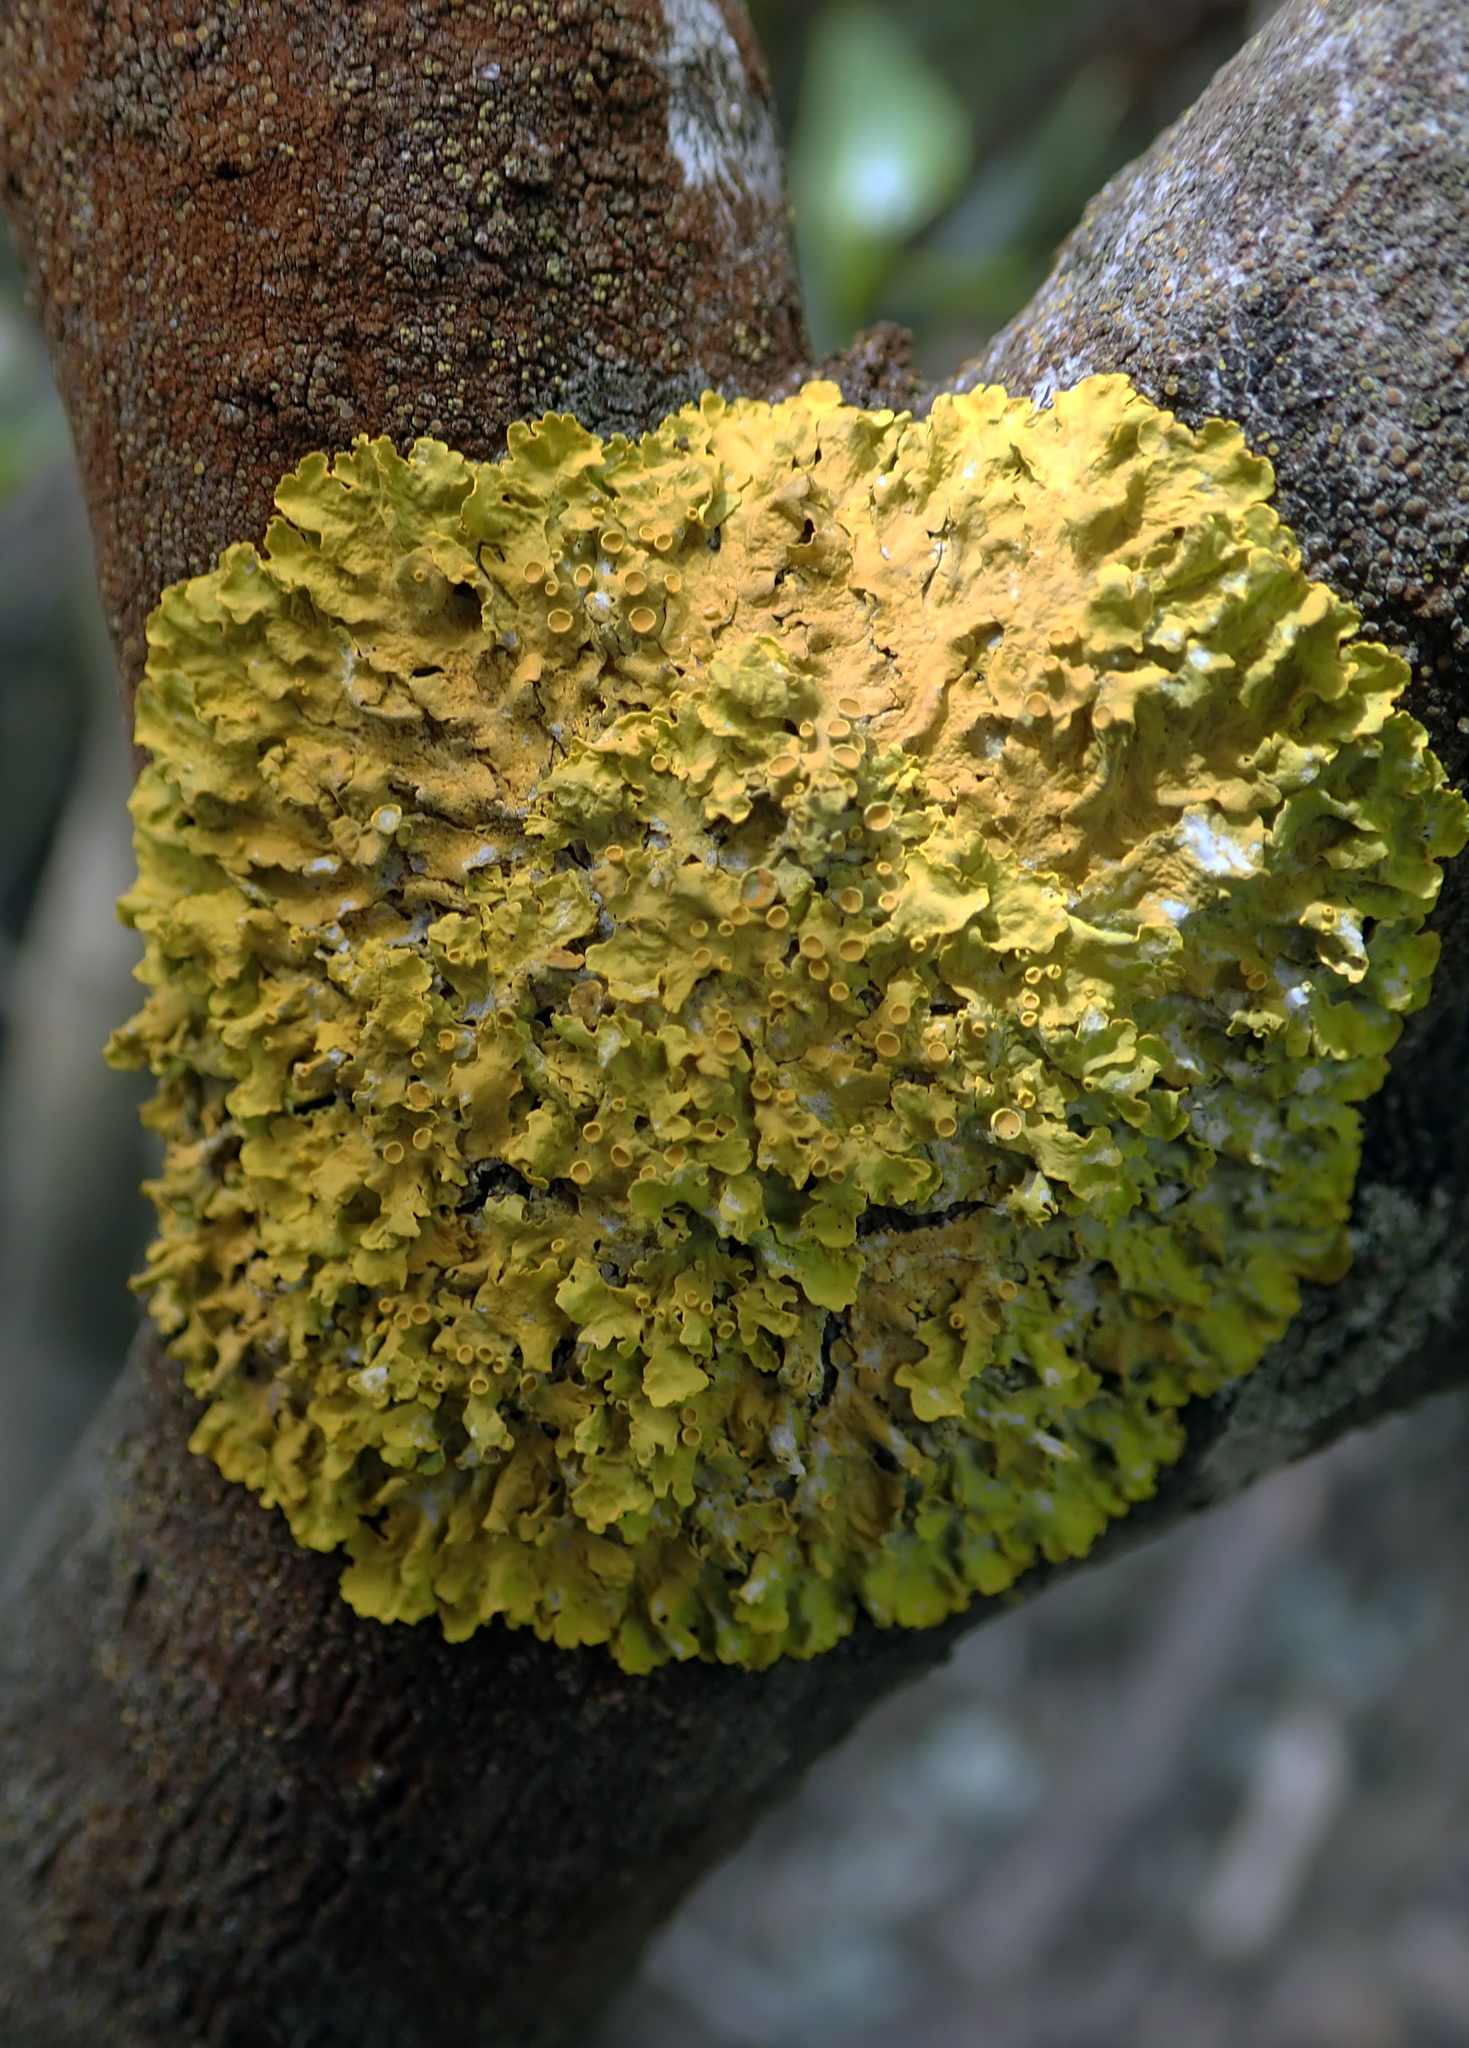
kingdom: Fungi
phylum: Ascomycota
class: Lecanoromycetes
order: Teloschistales
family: Teloschistaceae
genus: Xanthoria
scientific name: Xanthoria parietina
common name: Common orange lichen
